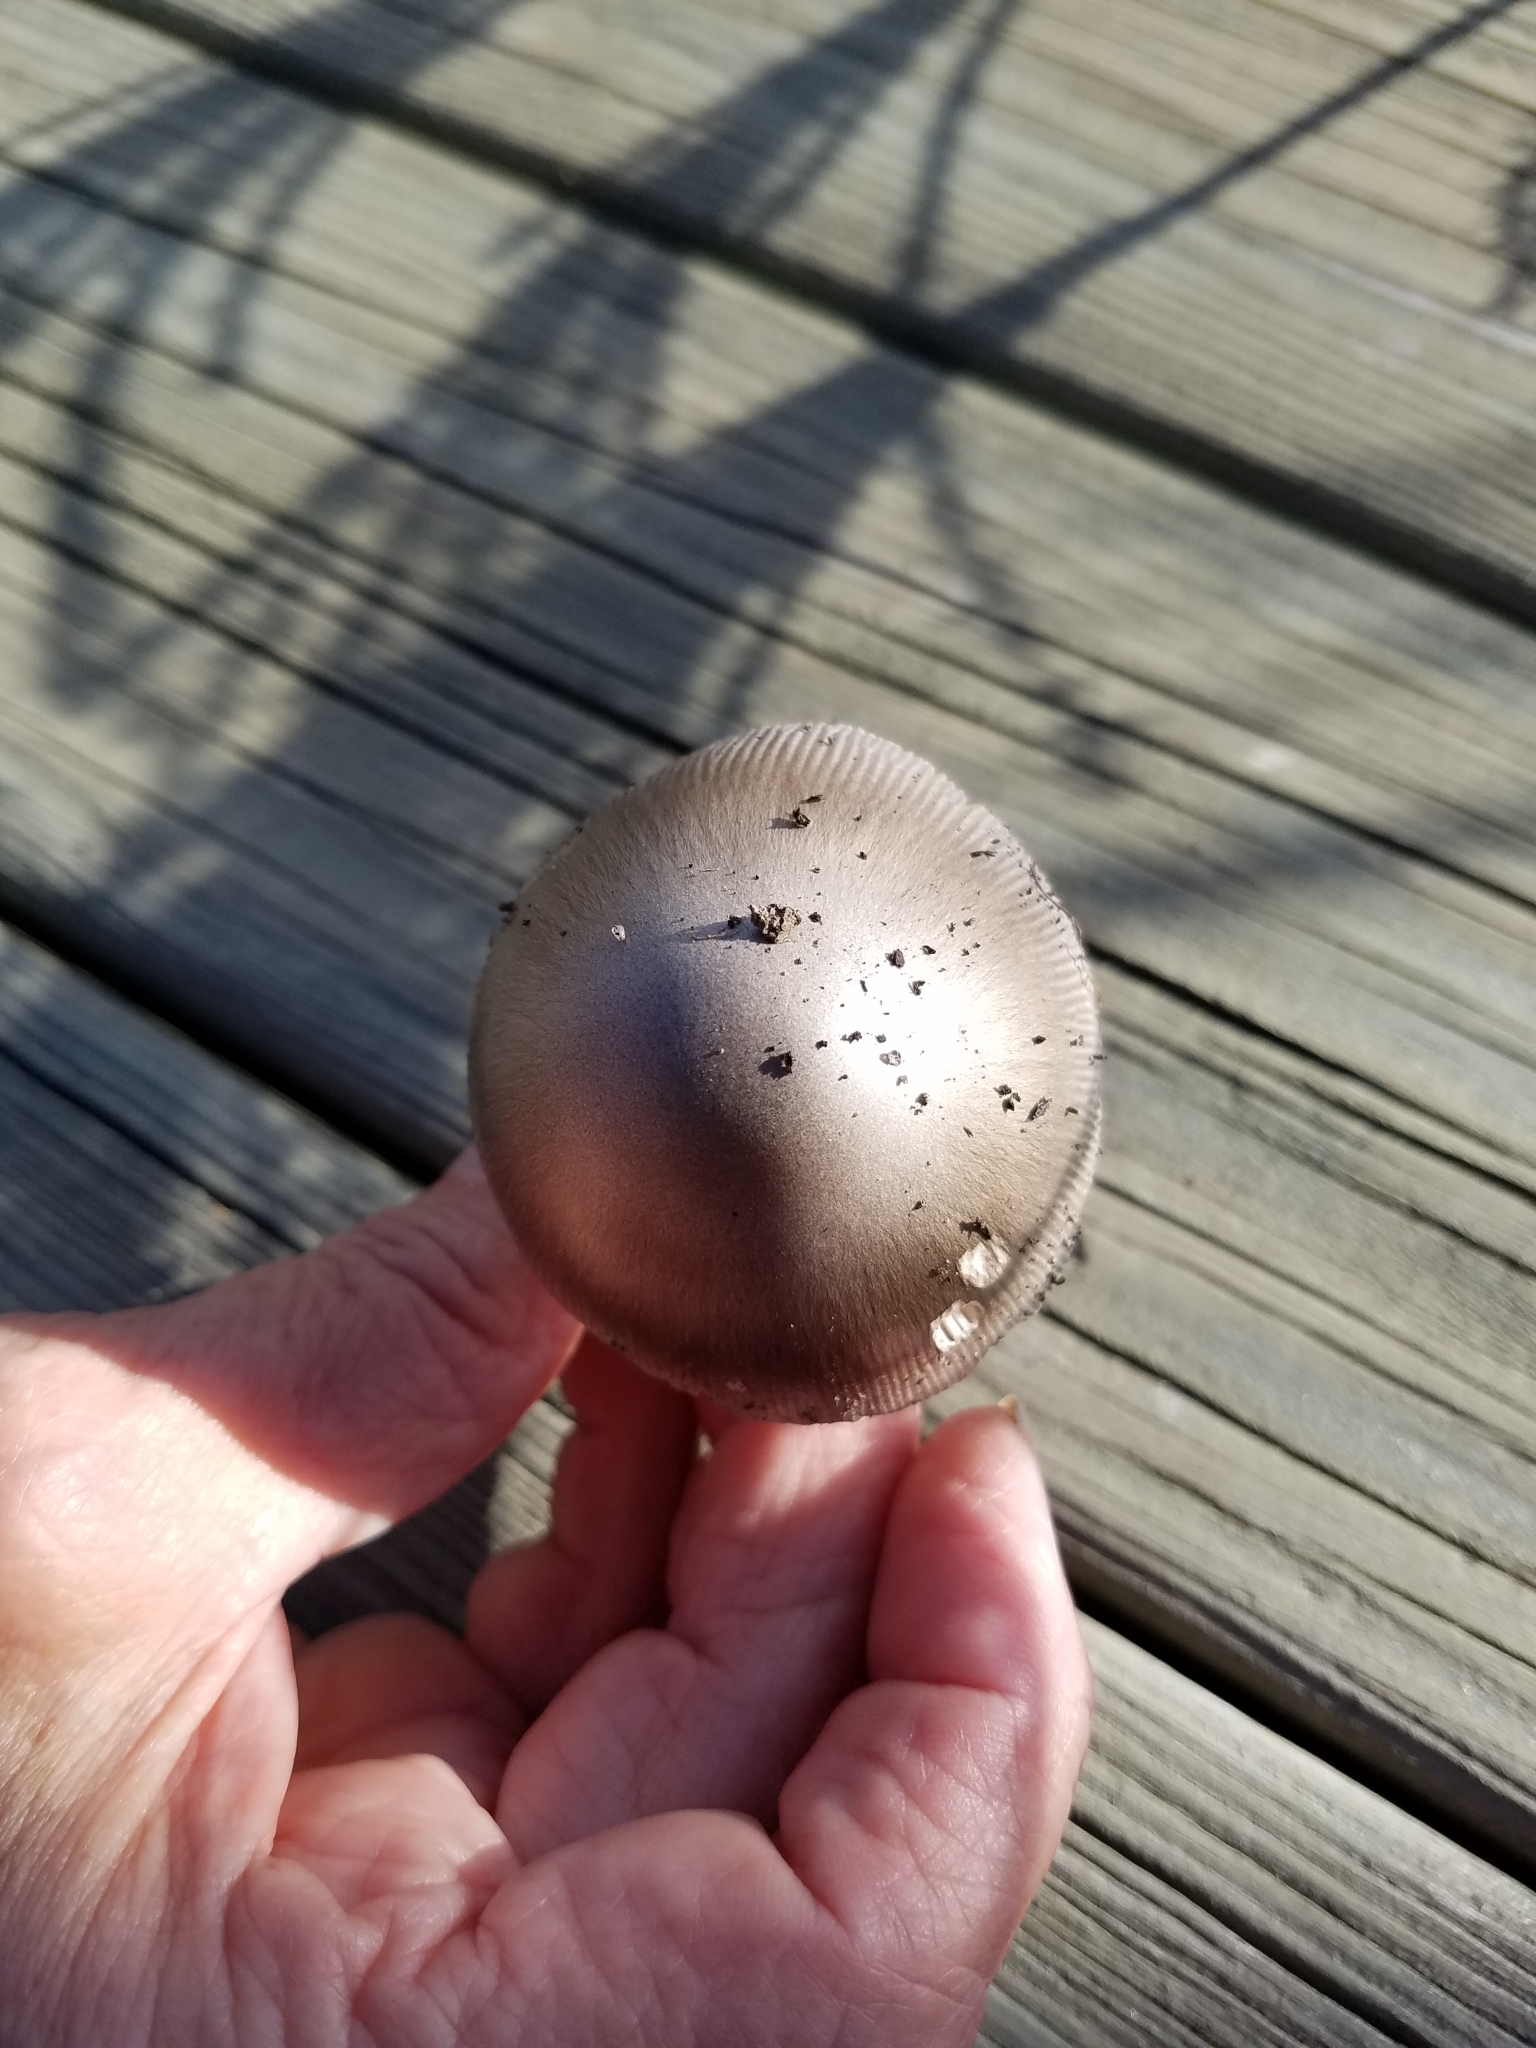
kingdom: Fungi
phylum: Basidiomycota
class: Agaricomycetes
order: Agaricales
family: Amanitaceae
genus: Amanita
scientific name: Amanita vaginata
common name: Grisette
